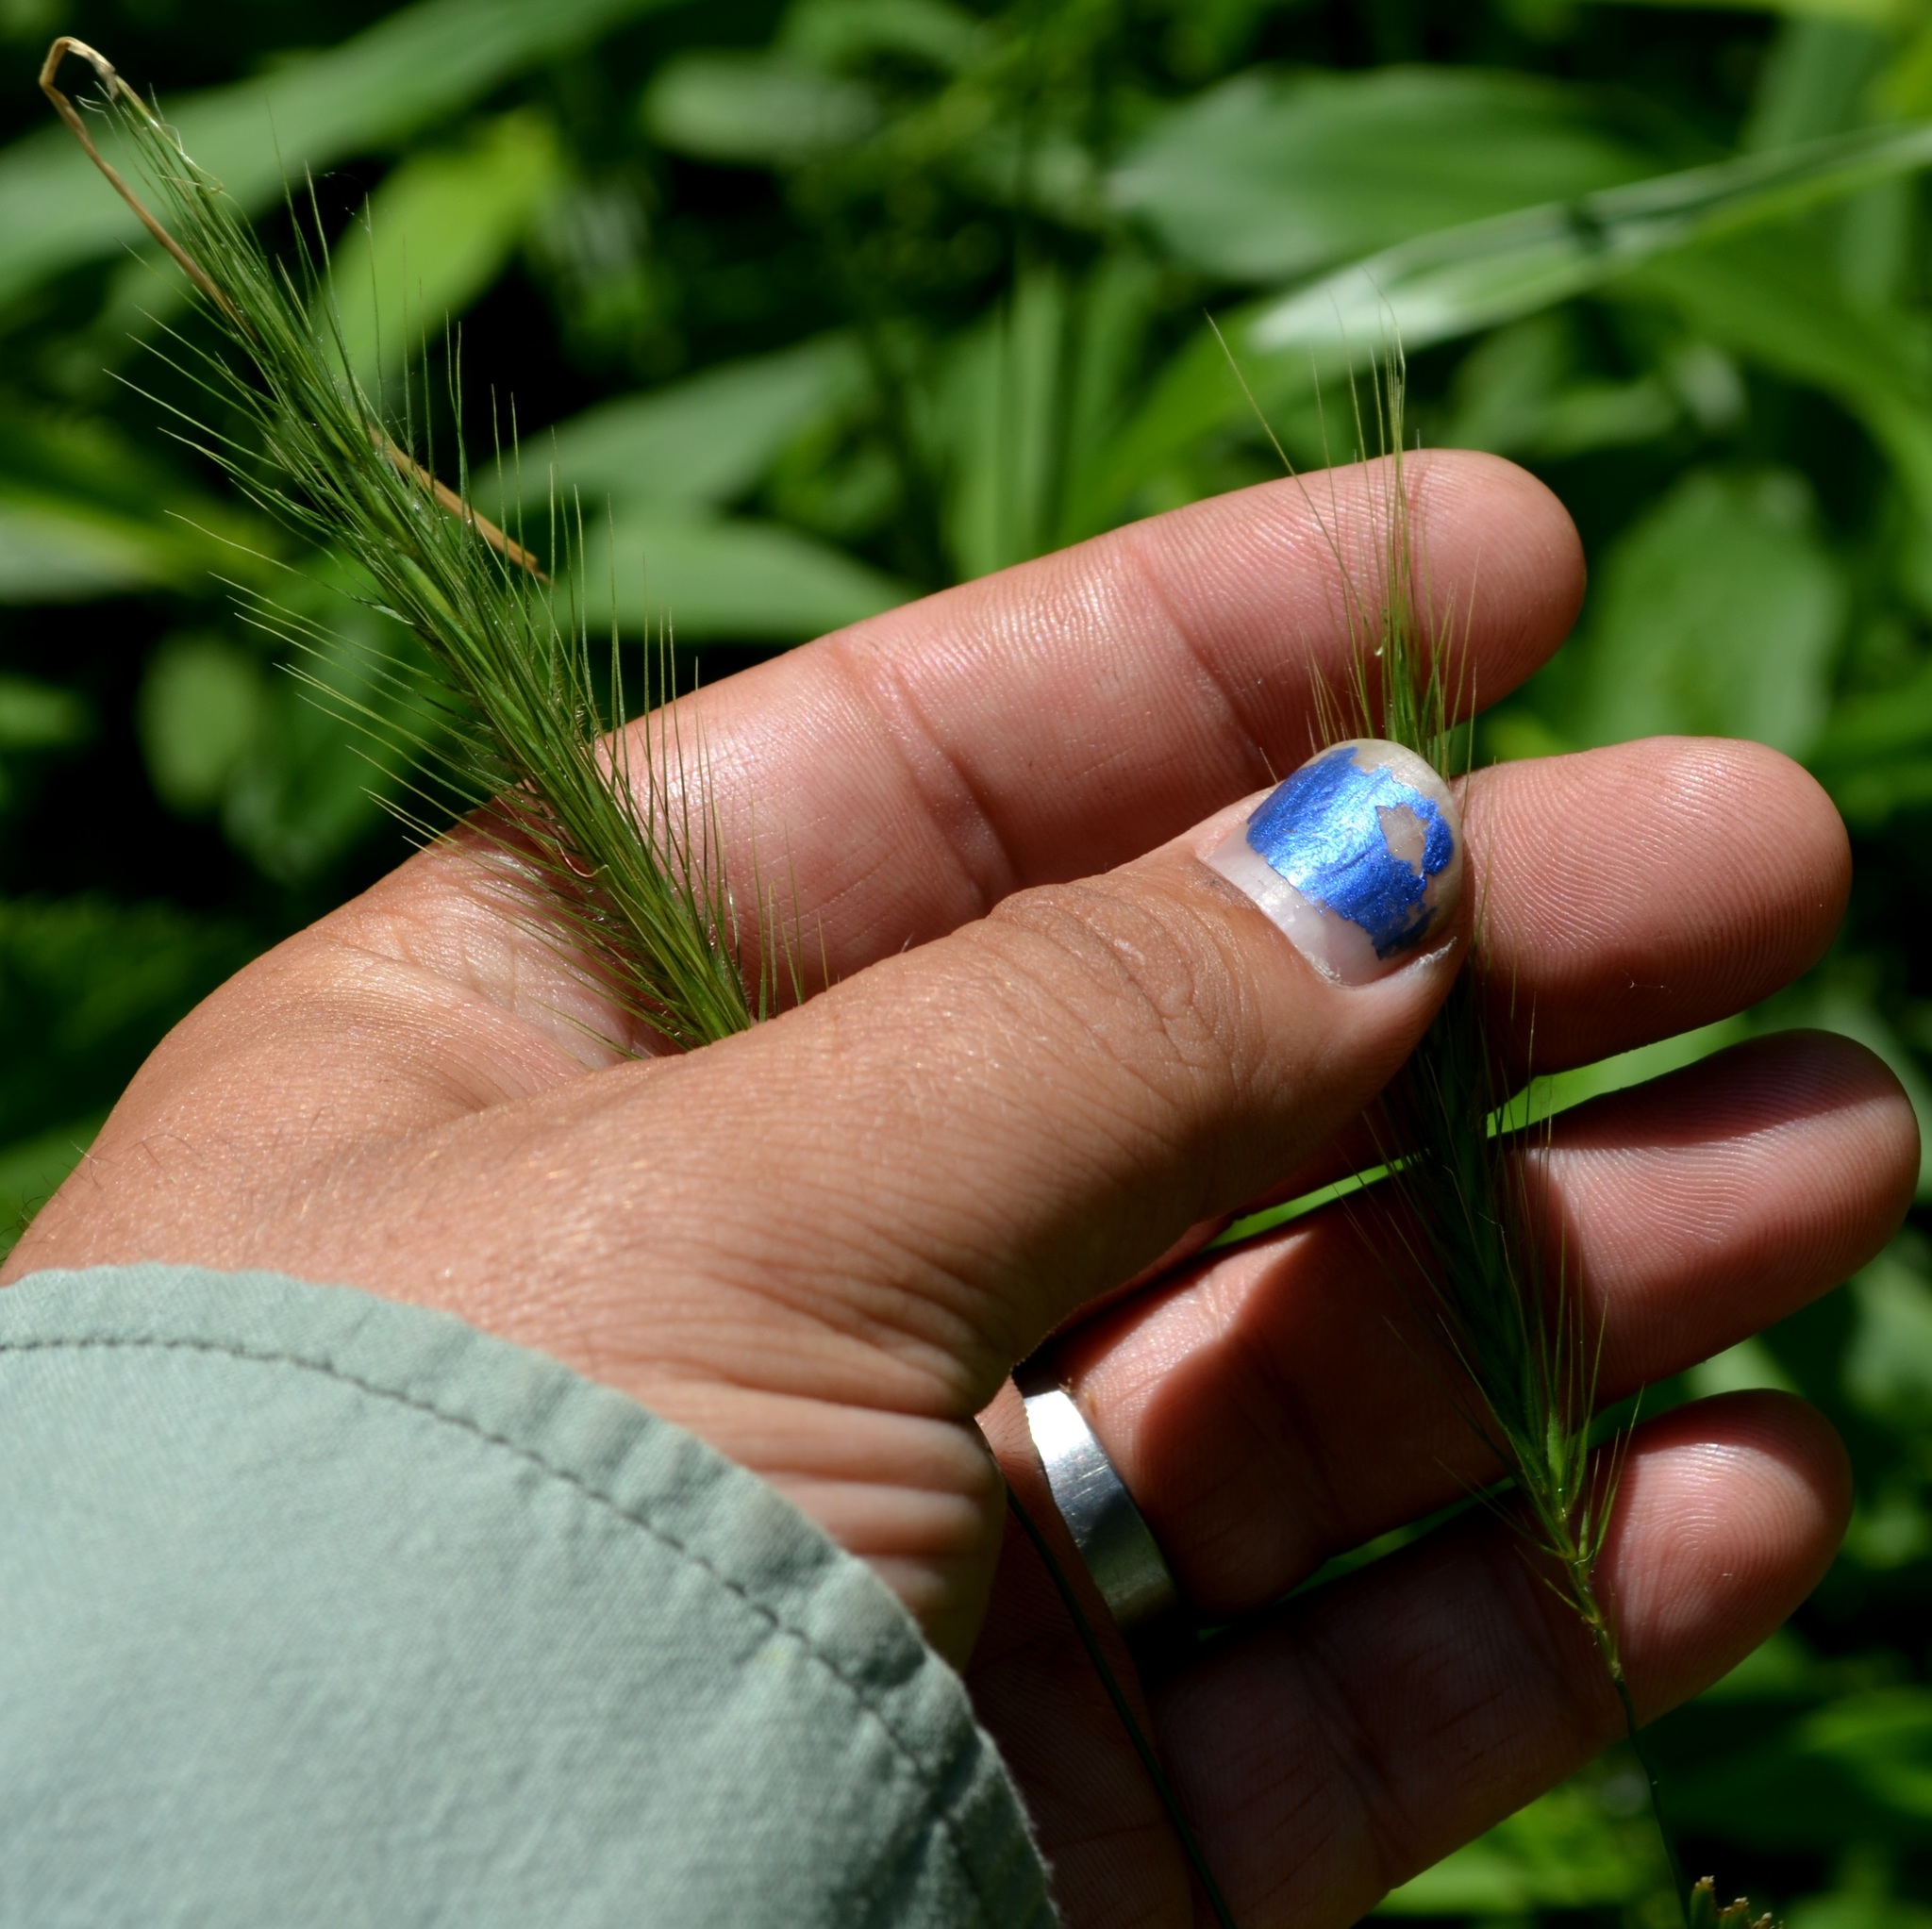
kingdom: Plantae
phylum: Tracheophyta
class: Liliopsida
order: Poales
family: Poaceae
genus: Elymus
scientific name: Elymus villosus
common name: Downy wild rye
